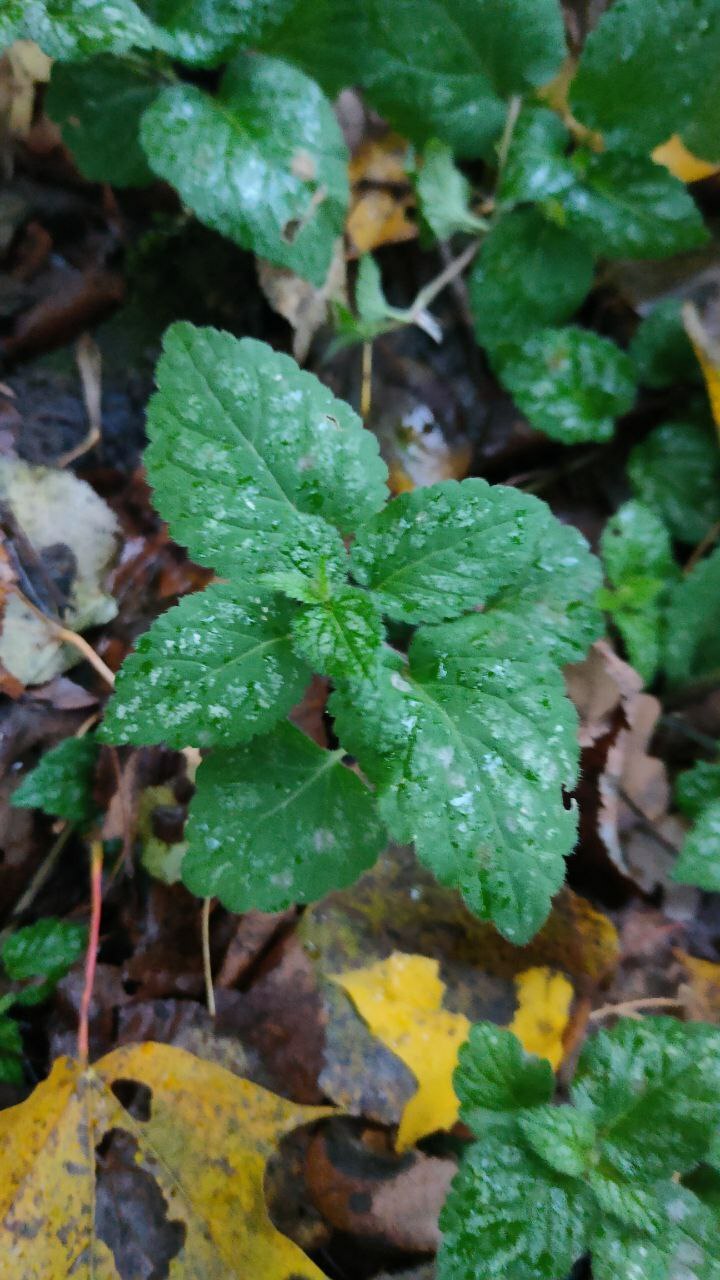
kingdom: Plantae
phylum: Tracheophyta
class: Magnoliopsida
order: Lamiales
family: Lamiaceae
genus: Lamium
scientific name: Lamium galeobdolon
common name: Yellow archangel
